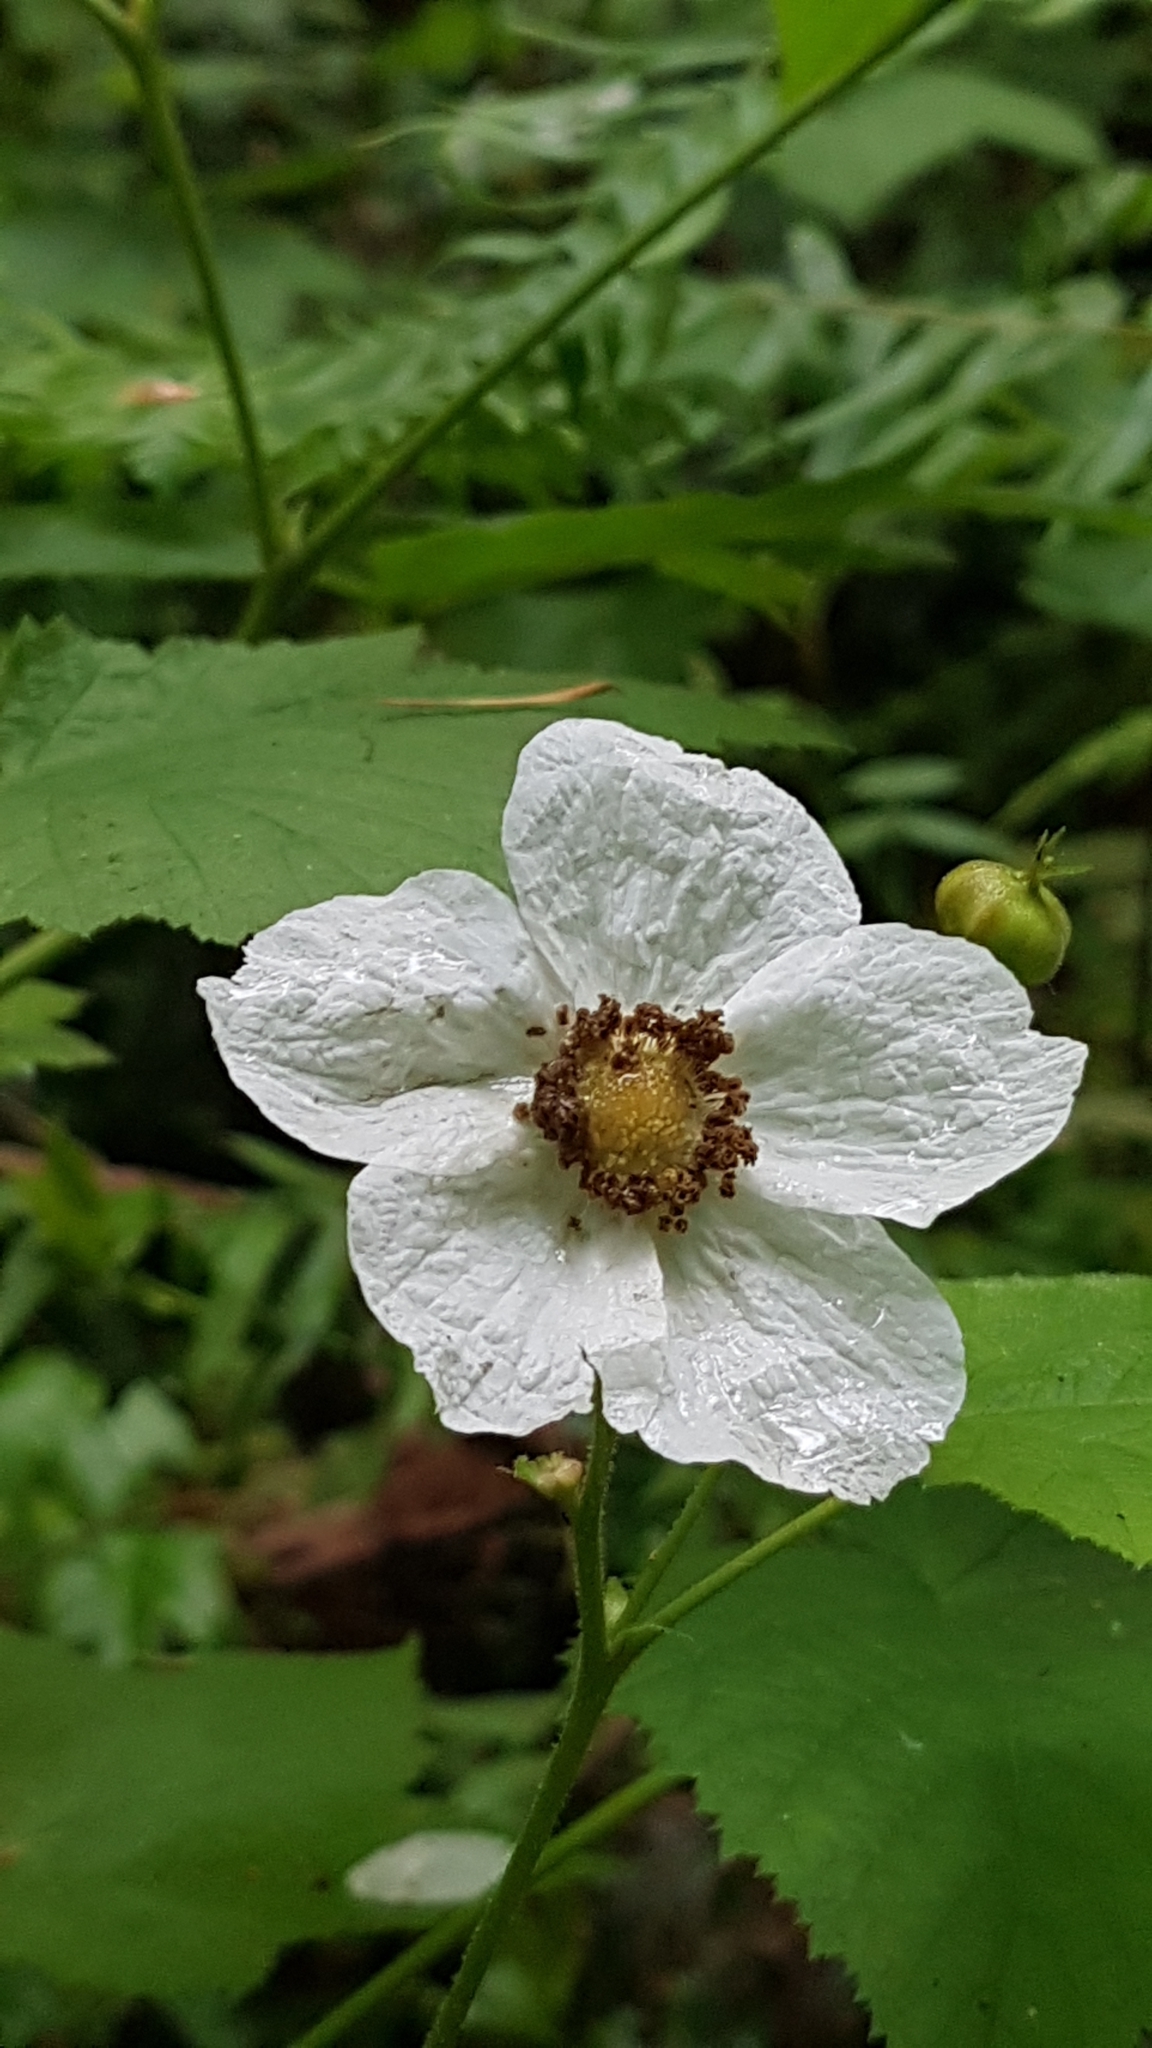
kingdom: Plantae
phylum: Tracheophyta
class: Magnoliopsida
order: Rosales
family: Rosaceae
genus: Rubus
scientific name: Rubus parviflorus
